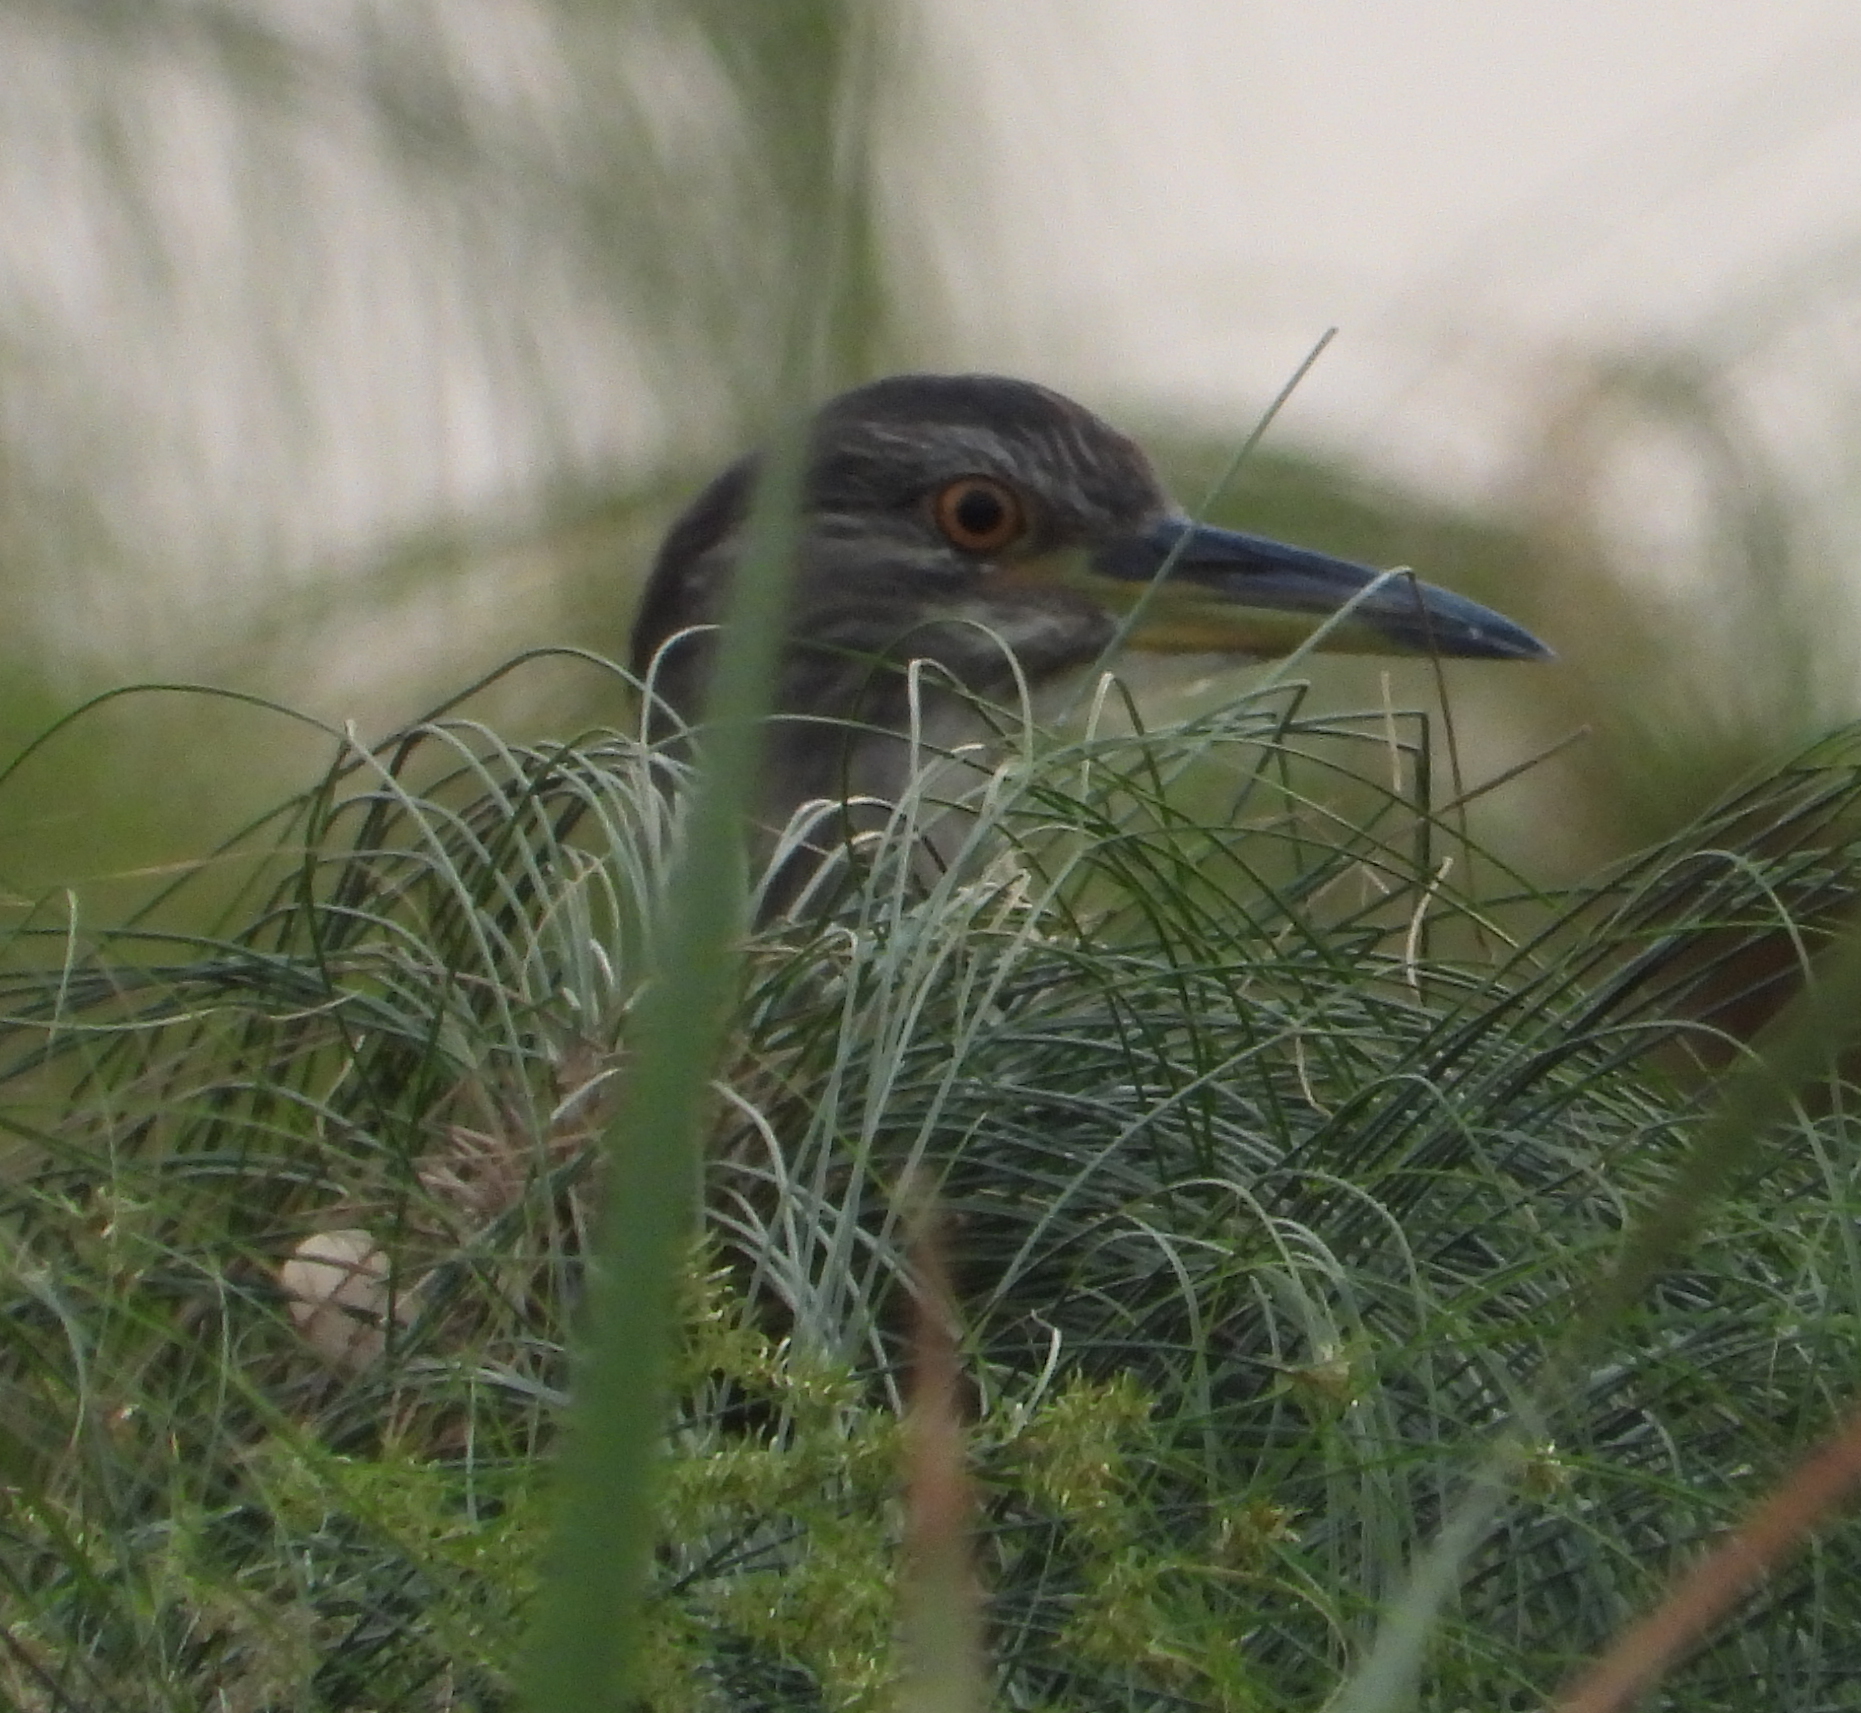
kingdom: Animalia
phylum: Chordata
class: Aves
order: Pelecaniformes
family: Ardeidae
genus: Nycticorax
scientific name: Nycticorax nycticorax
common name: Black-crowned night heron
